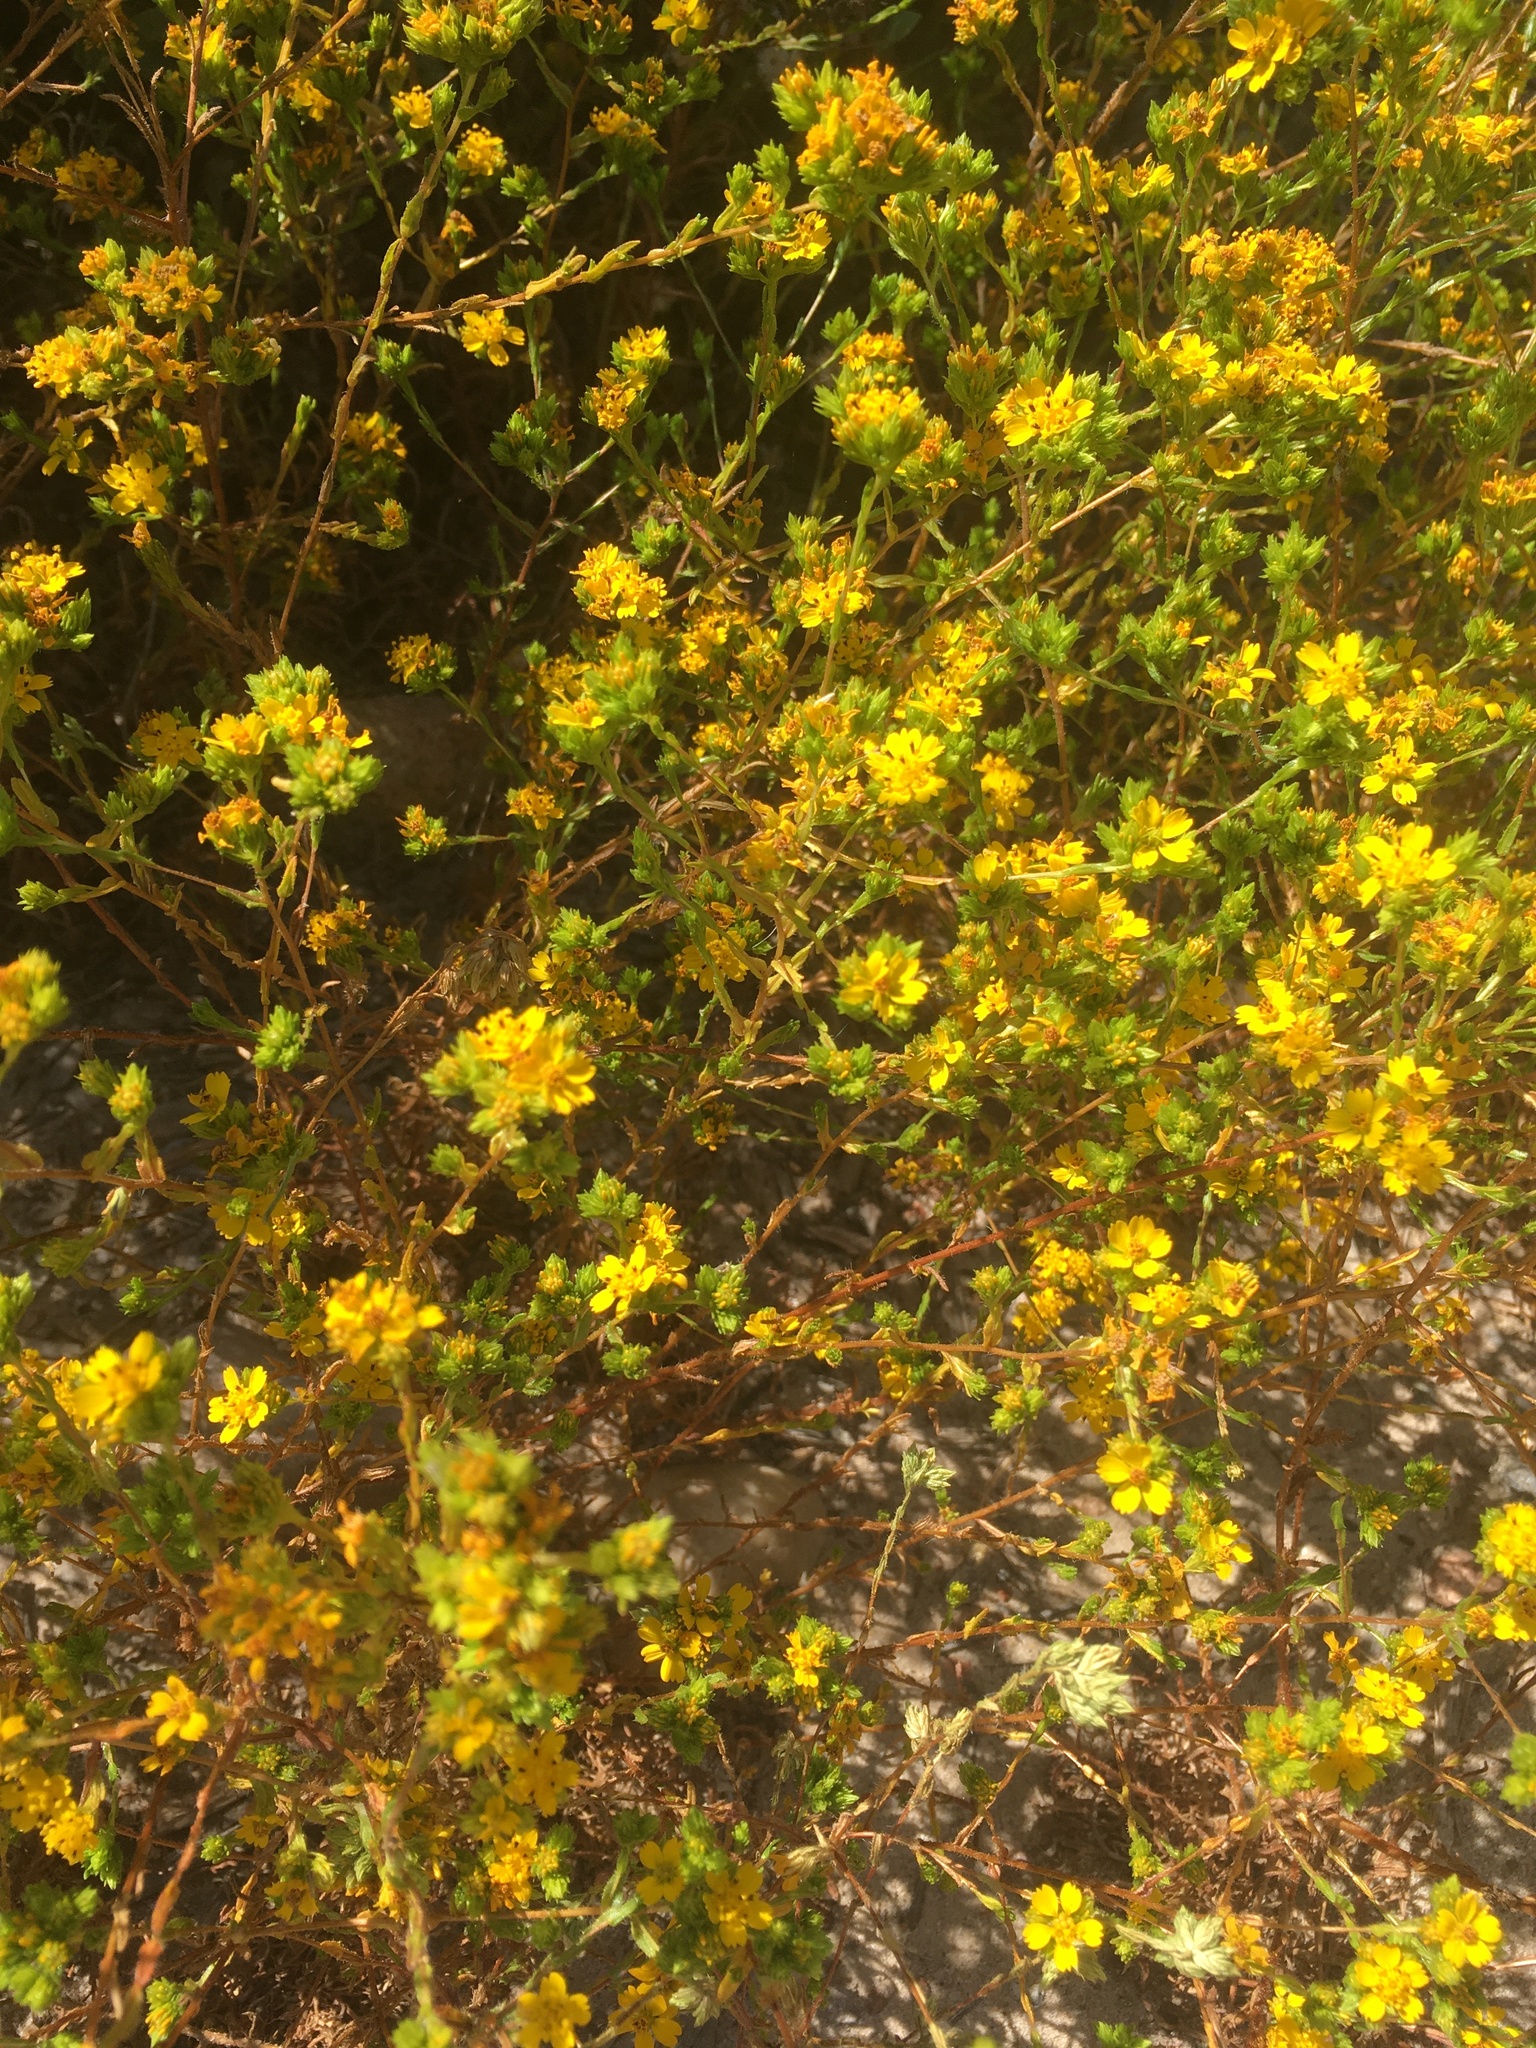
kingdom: Plantae
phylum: Tracheophyta
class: Magnoliopsida
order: Asterales
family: Asteraceae
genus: Deinandra
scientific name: Deinandra fasciculata
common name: Clustered tarweed
